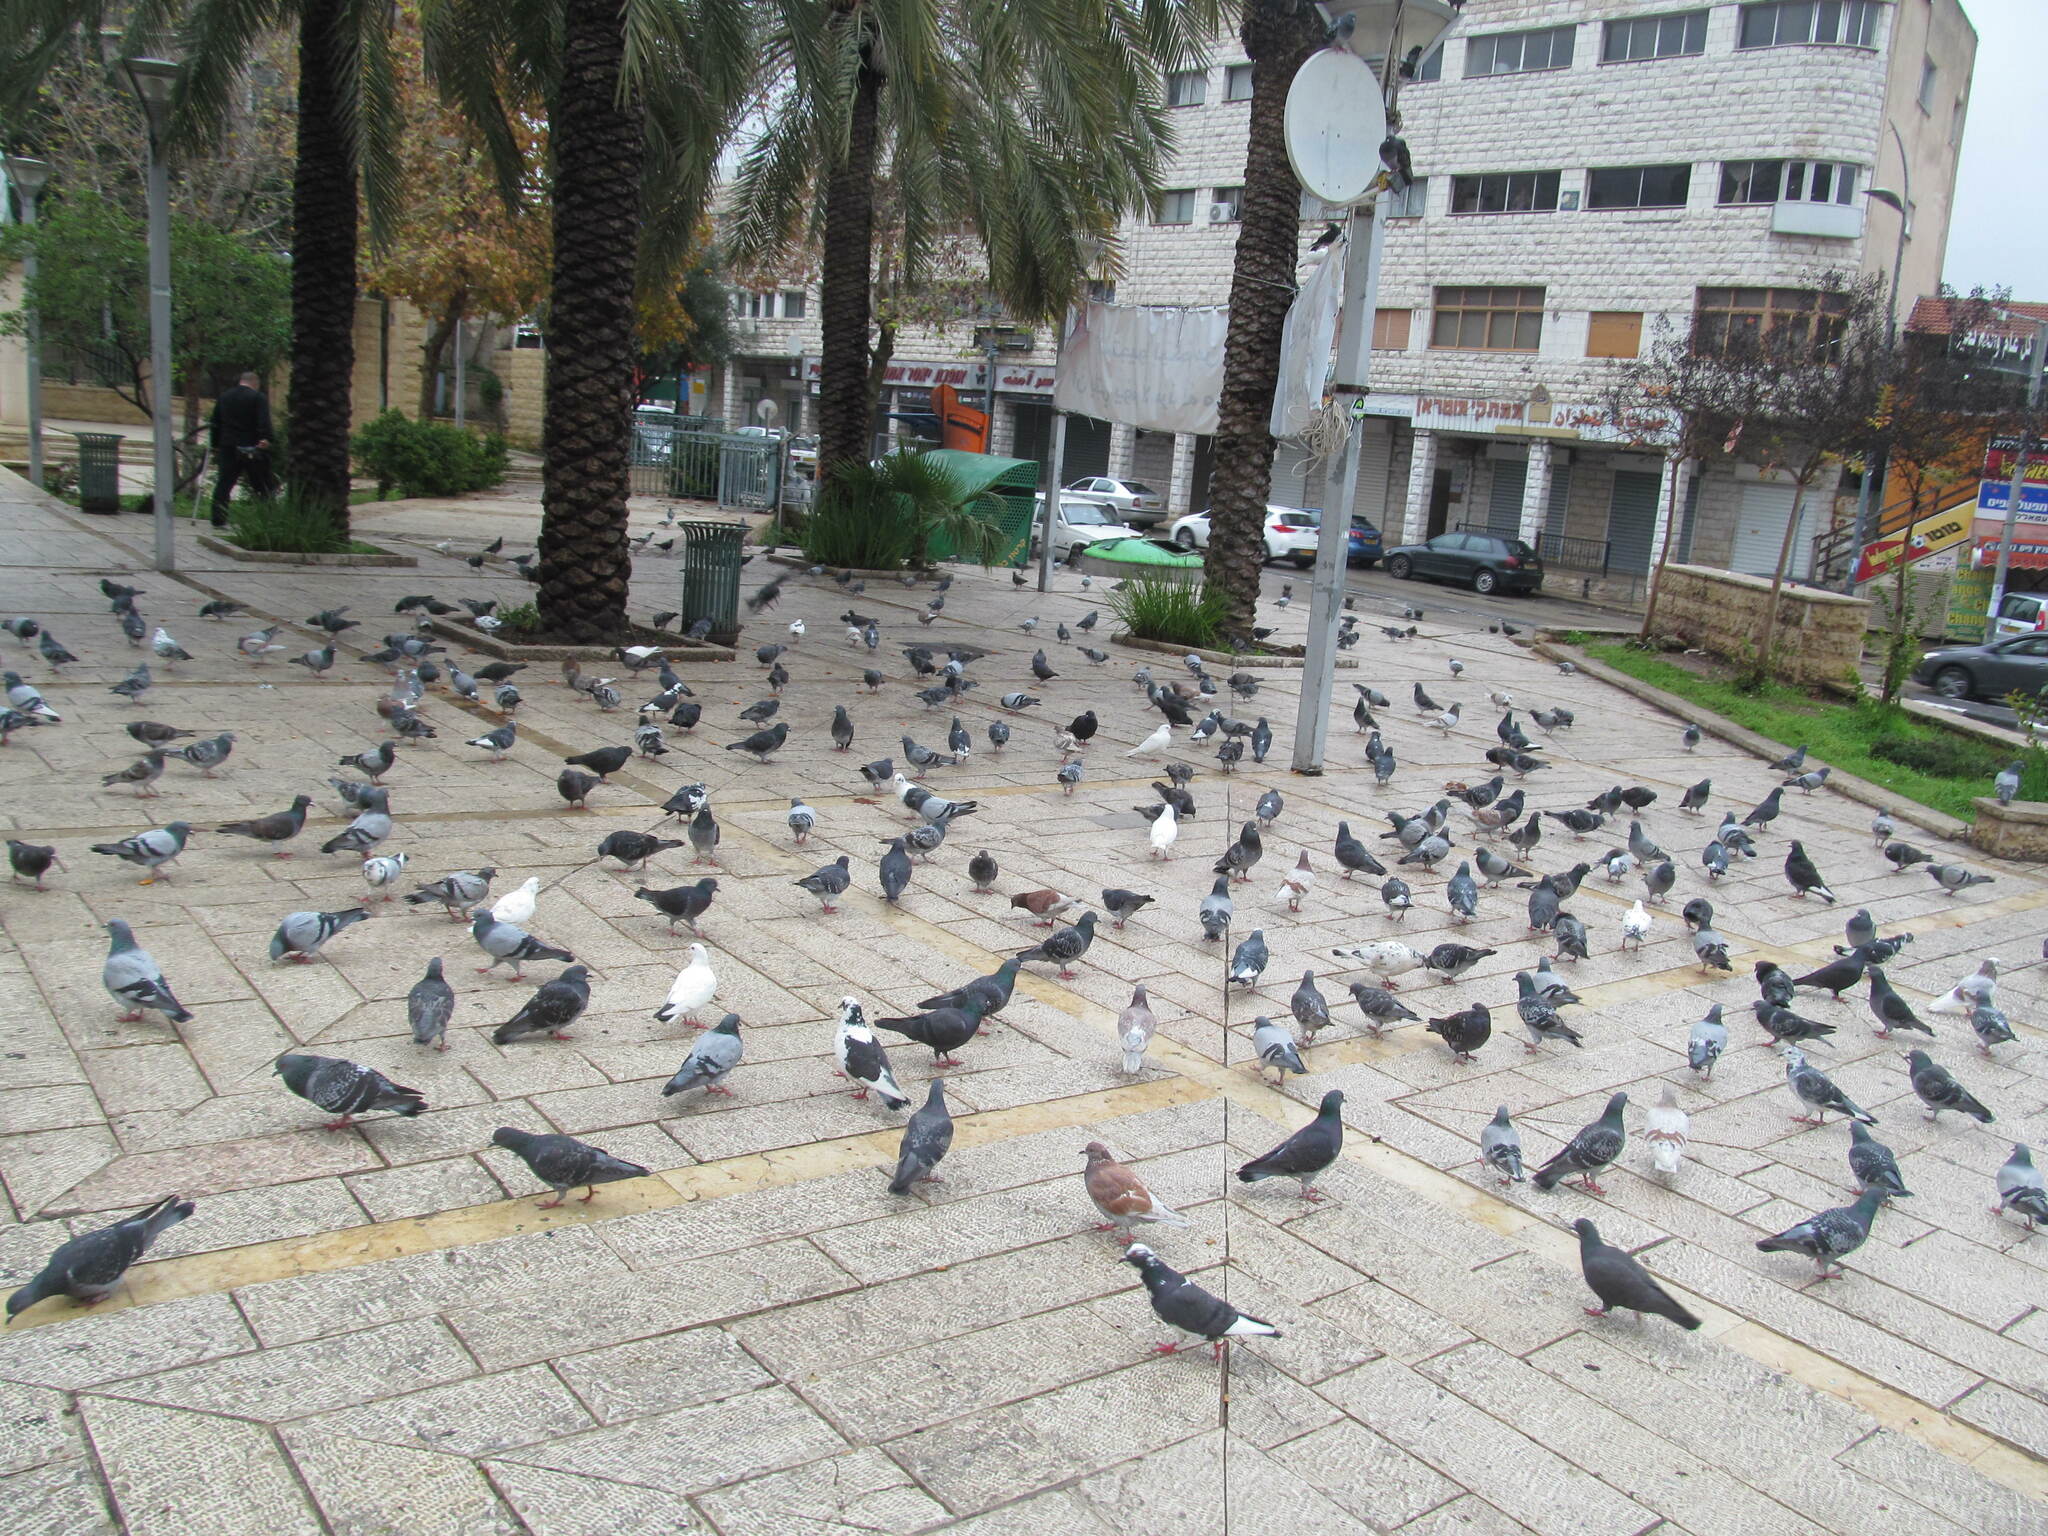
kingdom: Animalia
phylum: Chordata
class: Aves
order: Columbiformes
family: Columbidae
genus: Columba
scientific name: Columba livia
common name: Rock pigeon
